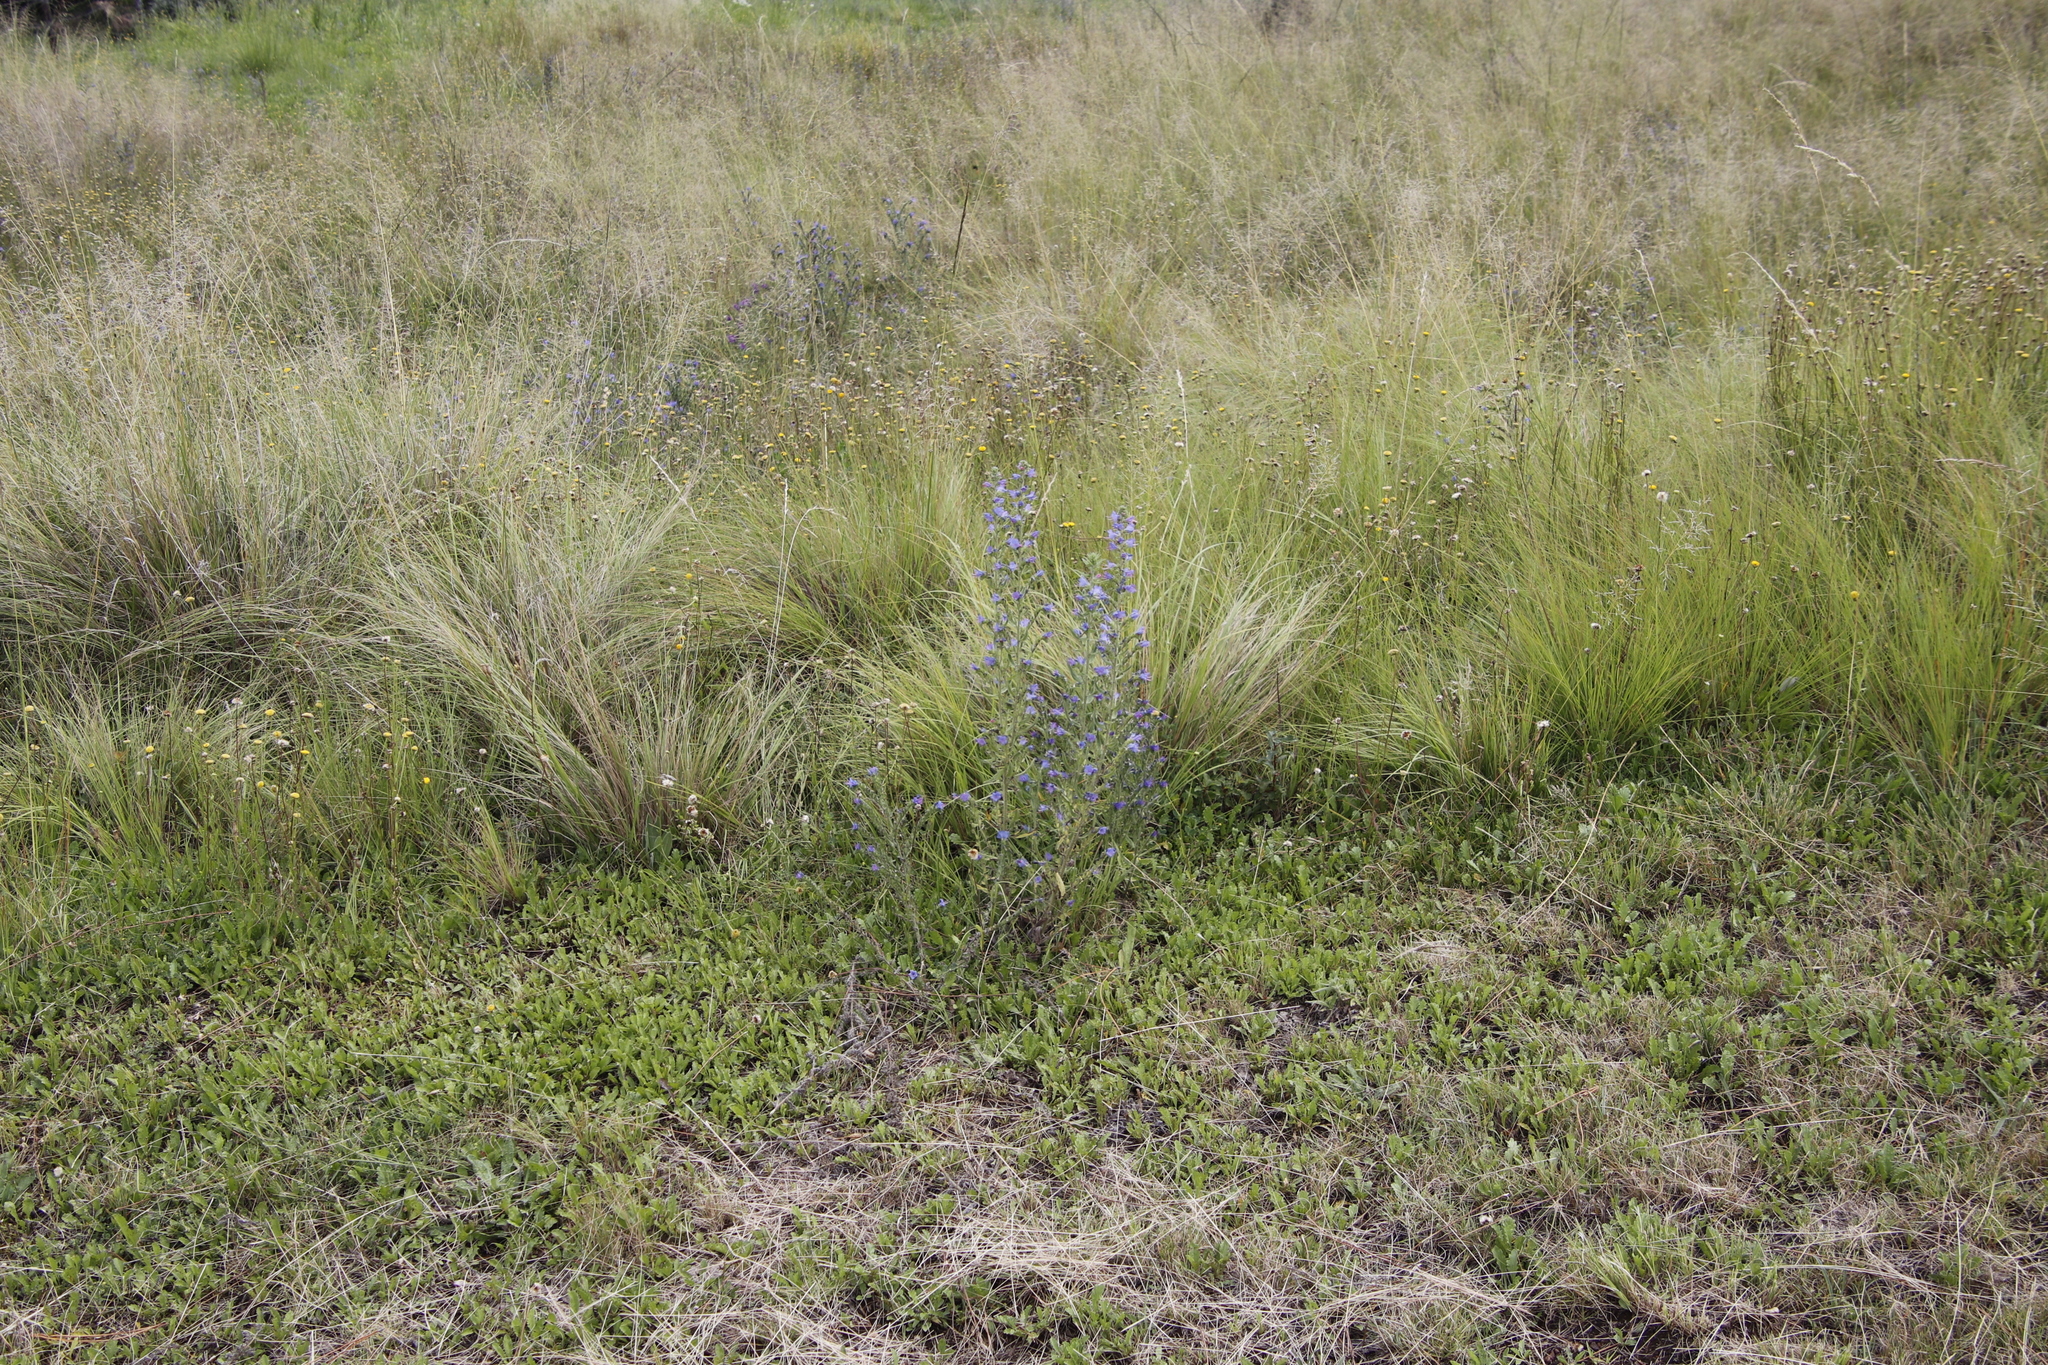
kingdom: Plantae
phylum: Tracheophyta
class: Magnoliopsida
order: Boraginales
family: Boraginaceae
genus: Echium
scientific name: Echium vulgare
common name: Common viper's bugloss
